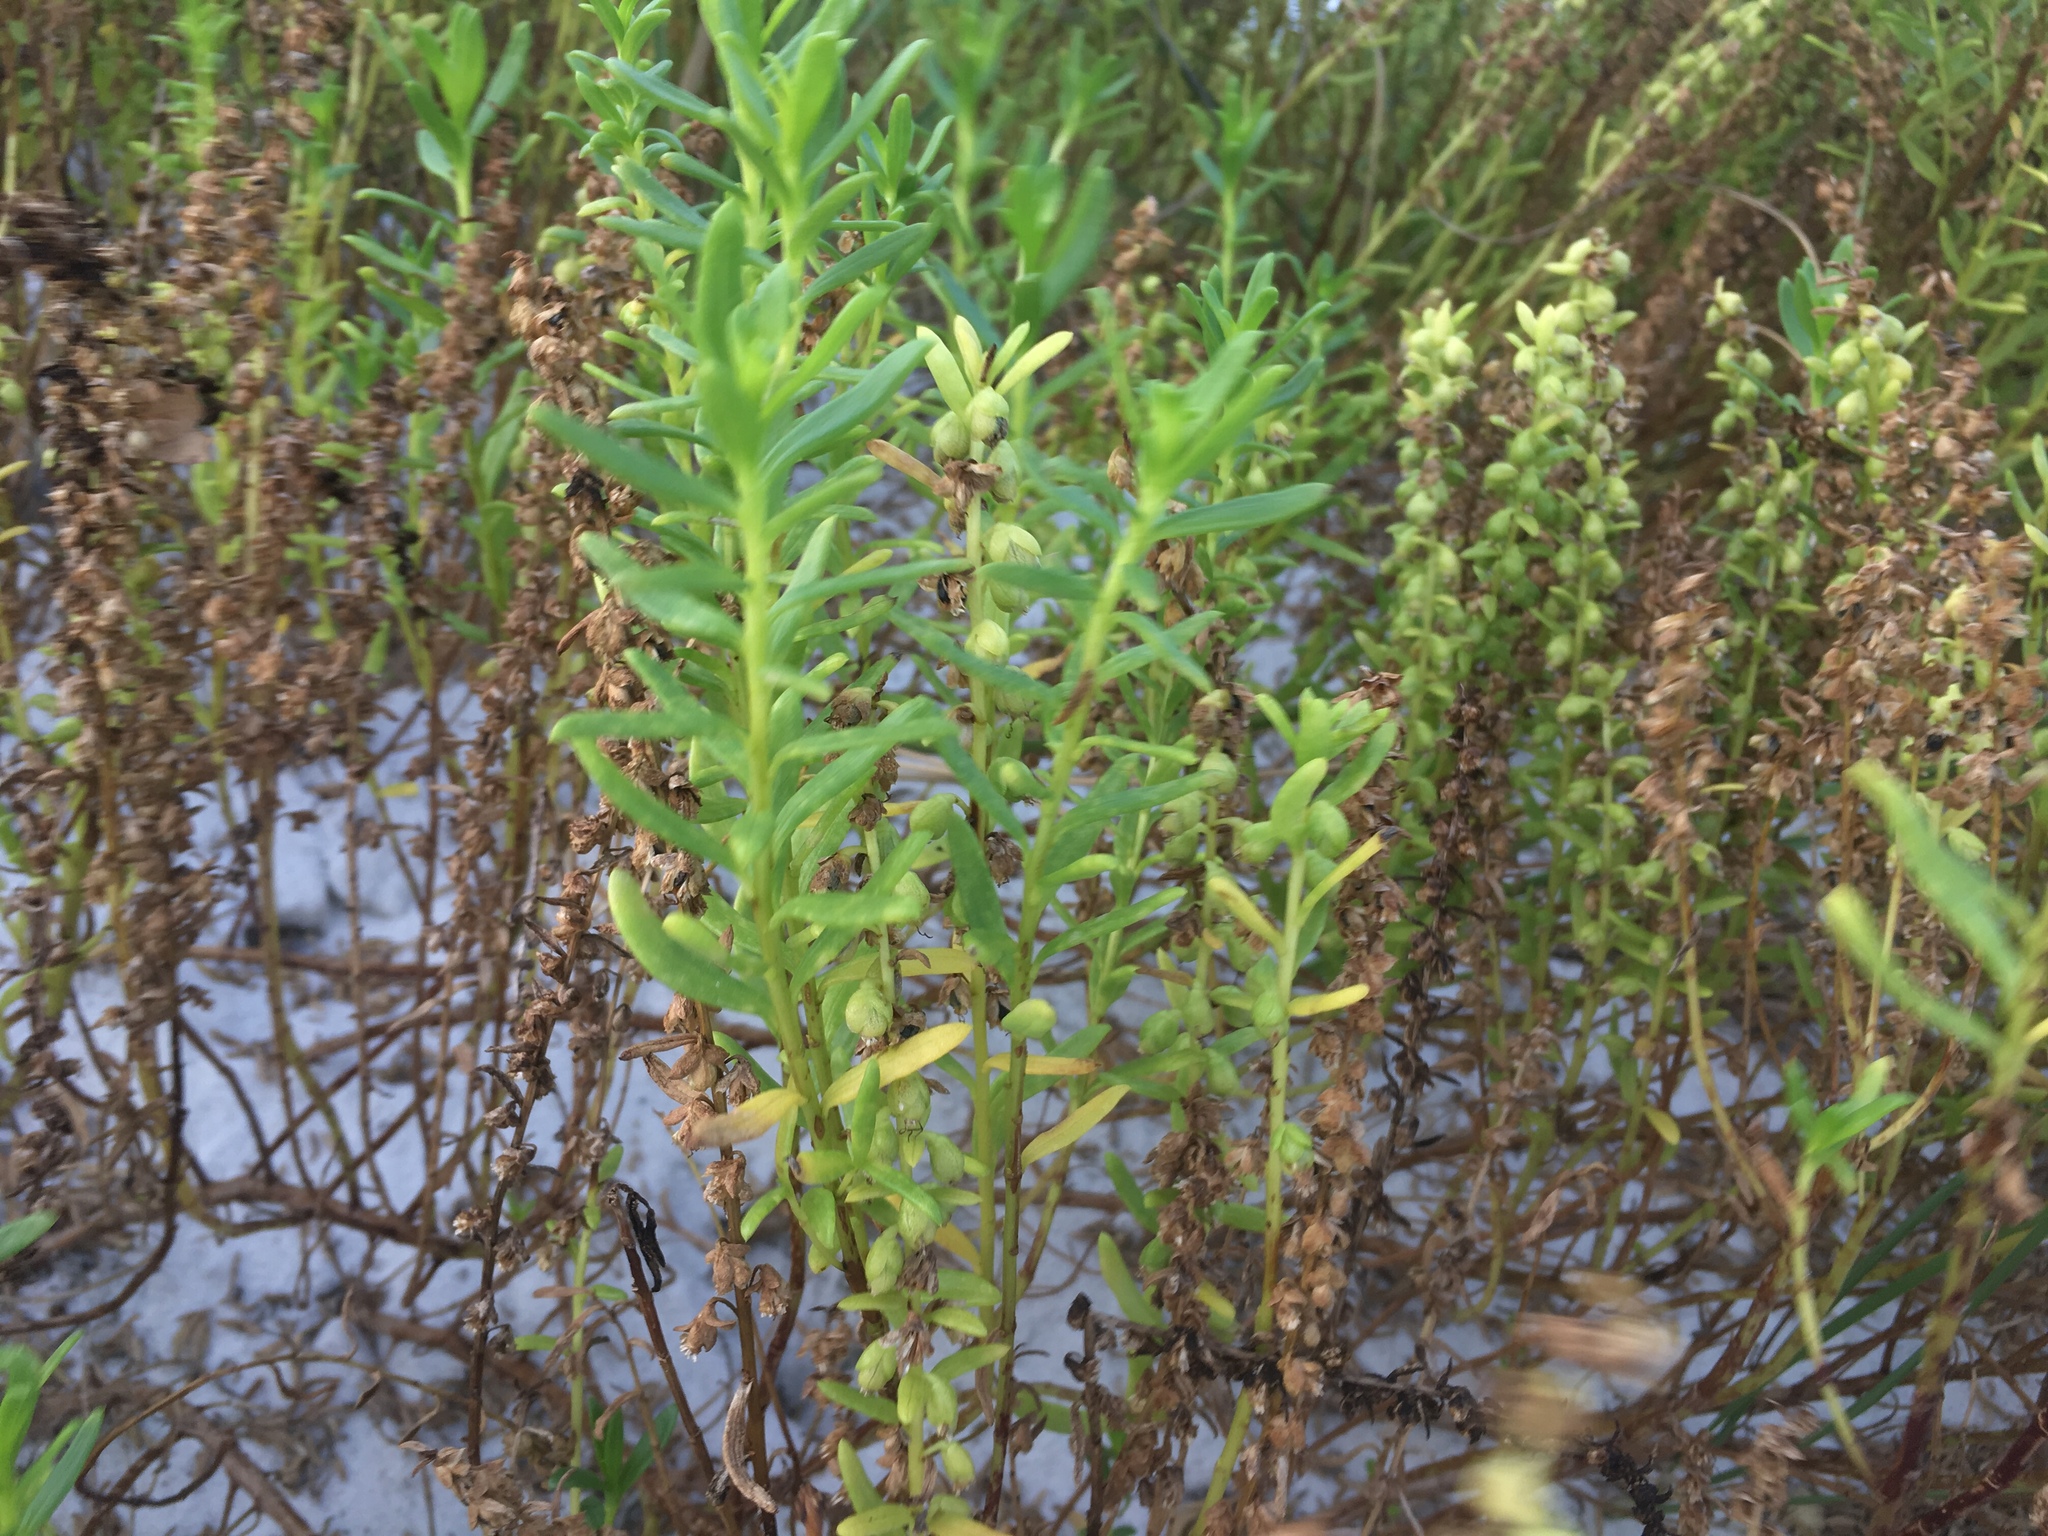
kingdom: Plantae
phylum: Tracheophyta
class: Magnoliopsida
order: Asterales
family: Asteraceae
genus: Iva
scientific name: Iva imbricata
